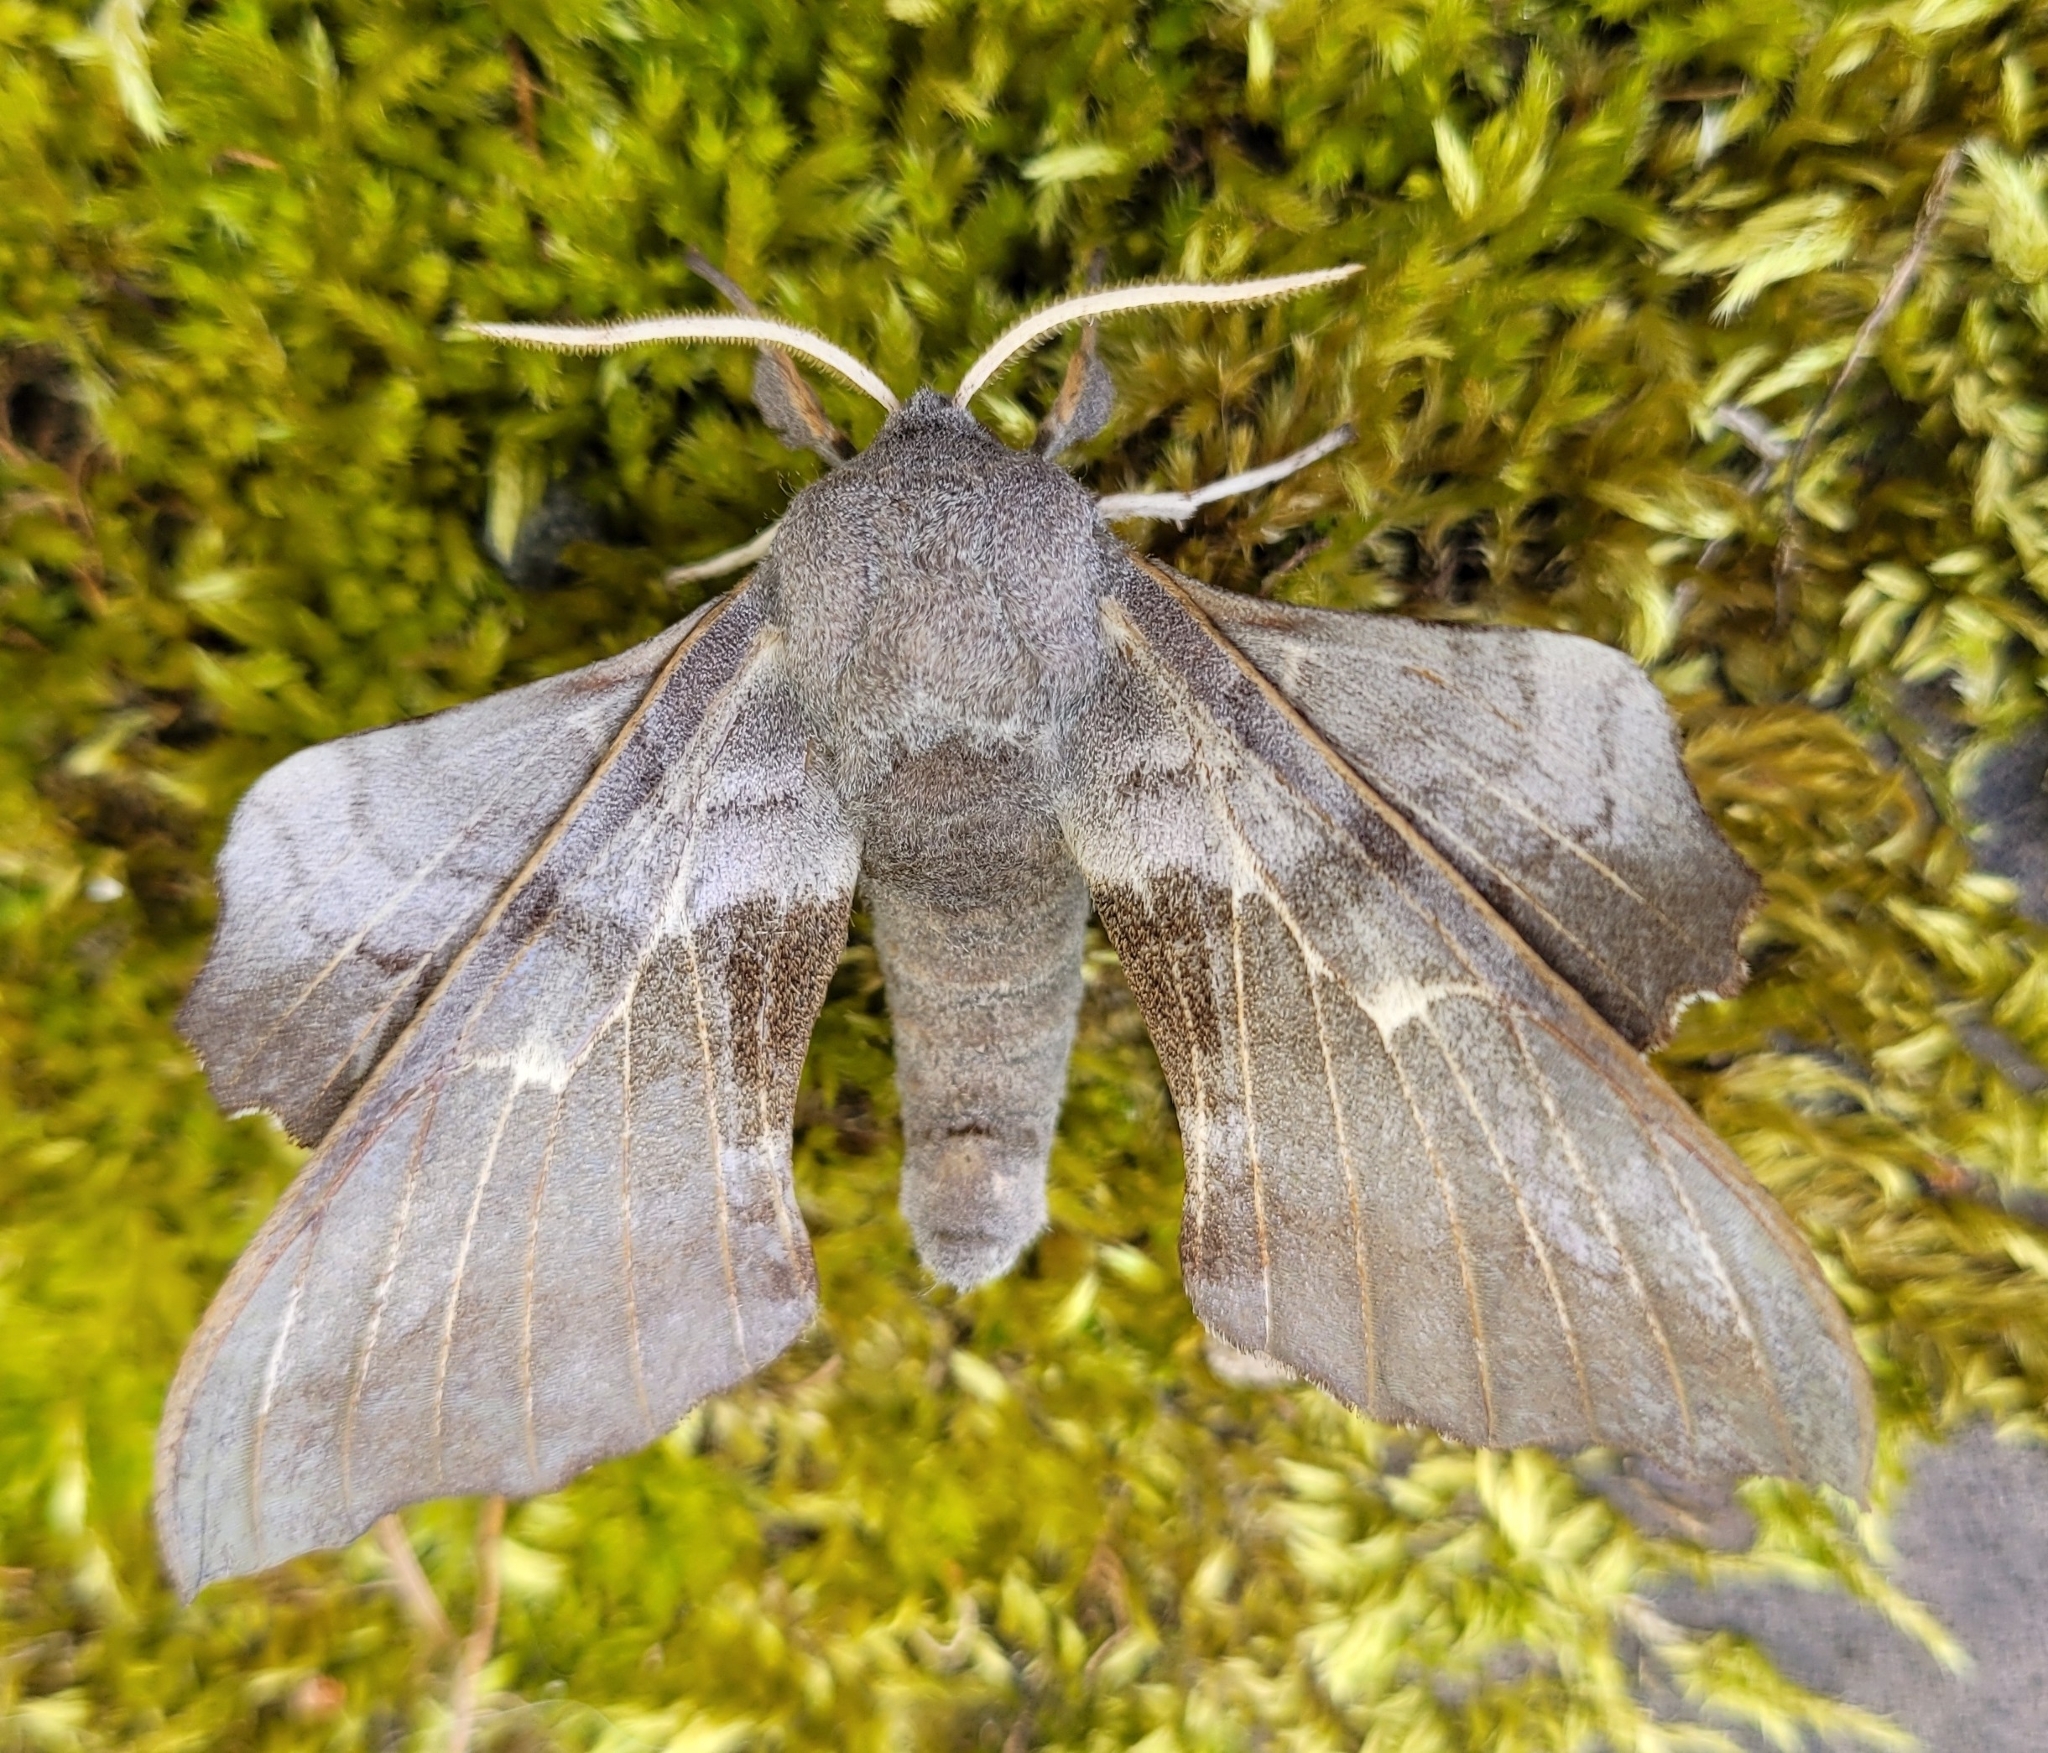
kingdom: Animalia
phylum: Arthropoda
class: Insecta
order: Lepidoptera
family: Sphingidae
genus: Laothoe
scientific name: Laothoe populi
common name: Poplar hawk-moth
